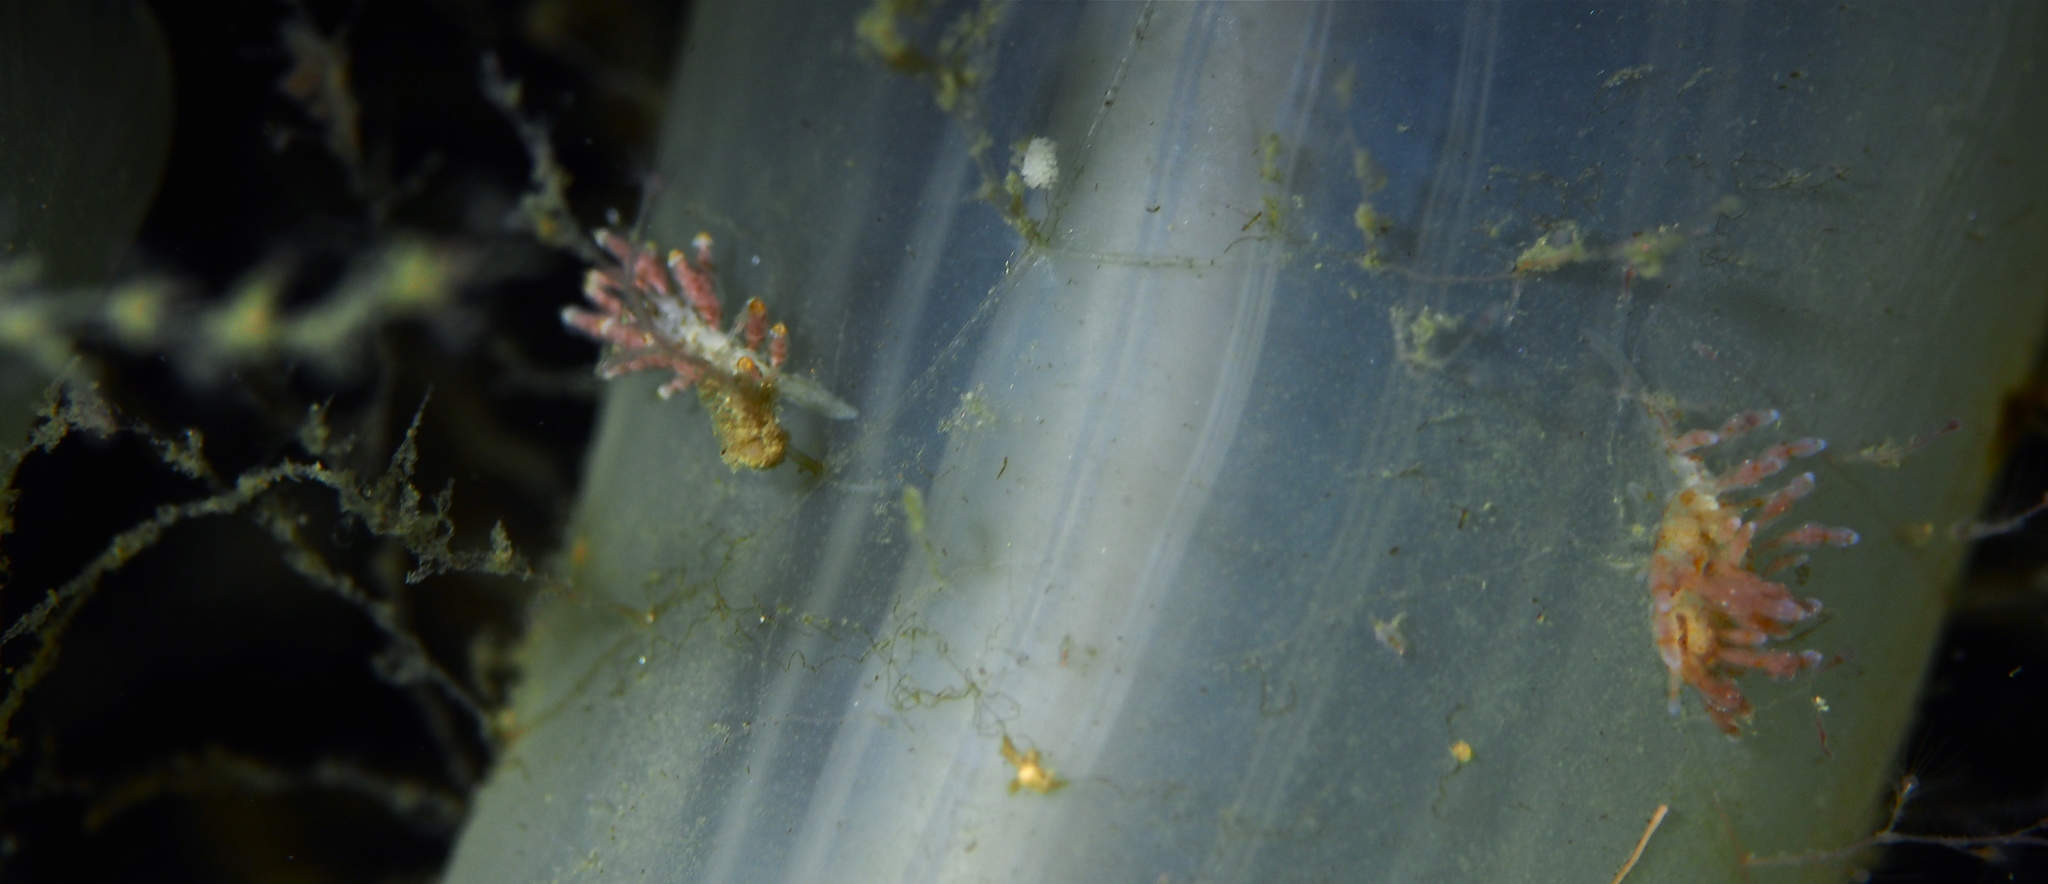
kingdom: Animalia
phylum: Mollusca
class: Gastropoda
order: Nudibranchia
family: Eubranchidae
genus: Eubranchus
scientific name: Eubranchus exiguus
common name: Balloon aeolis
